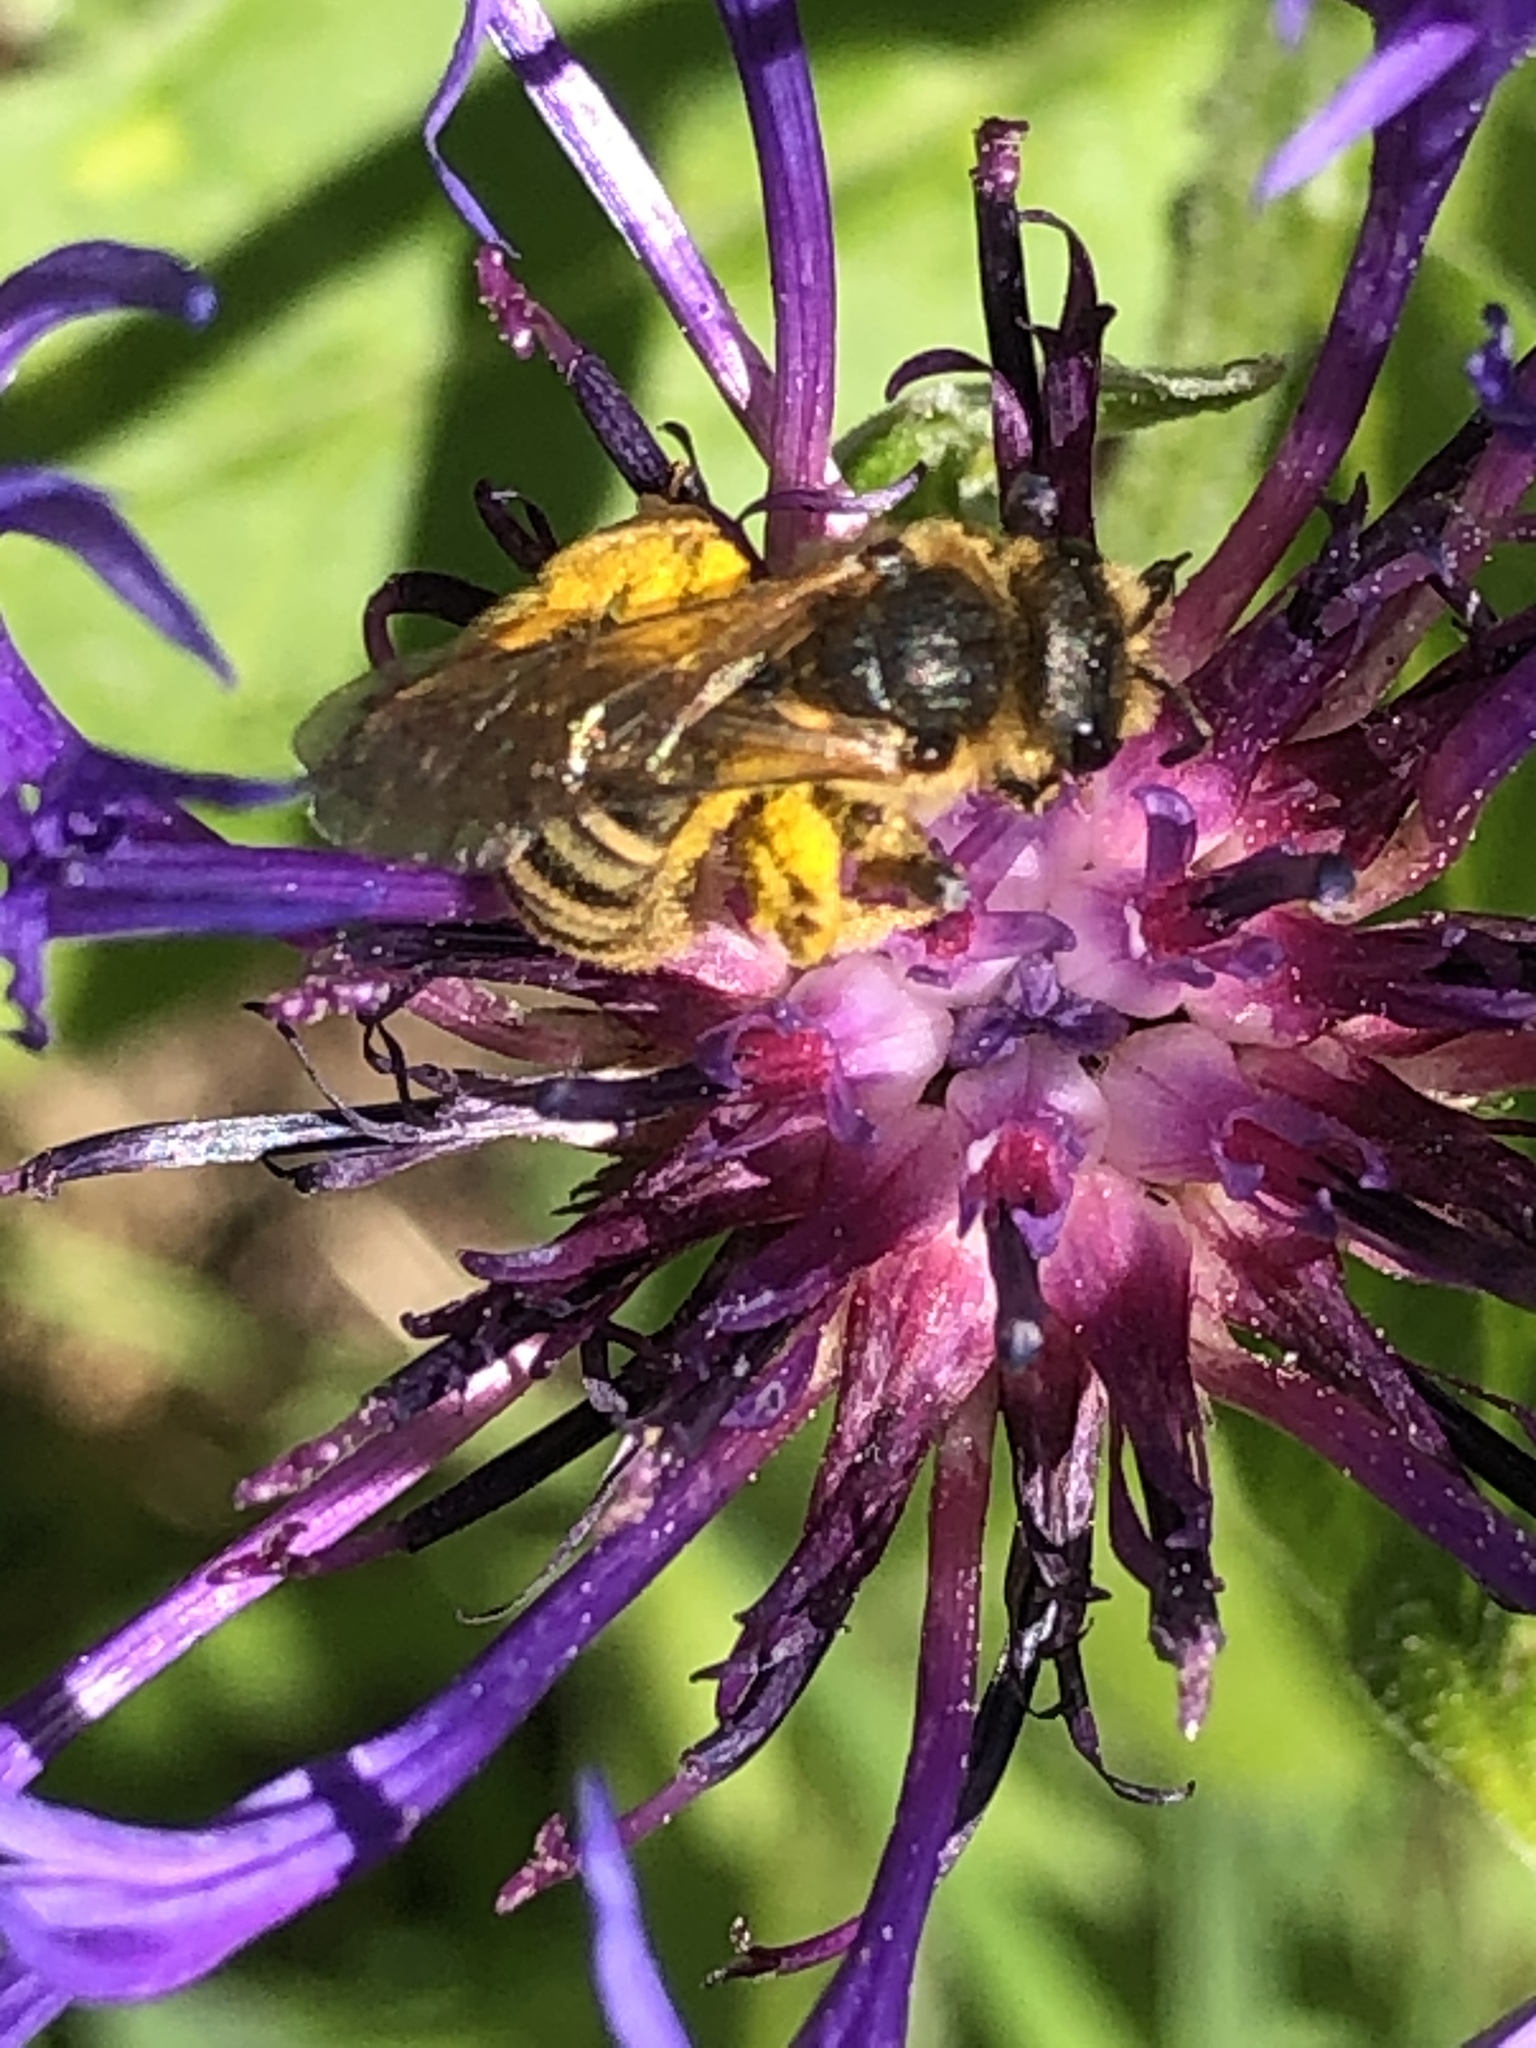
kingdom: Animalia
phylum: Arthropoda
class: Insecta
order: Hymenoptera
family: Halictidae
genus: Halictus
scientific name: Halictus scabiosae
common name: Great banded furrow bee
